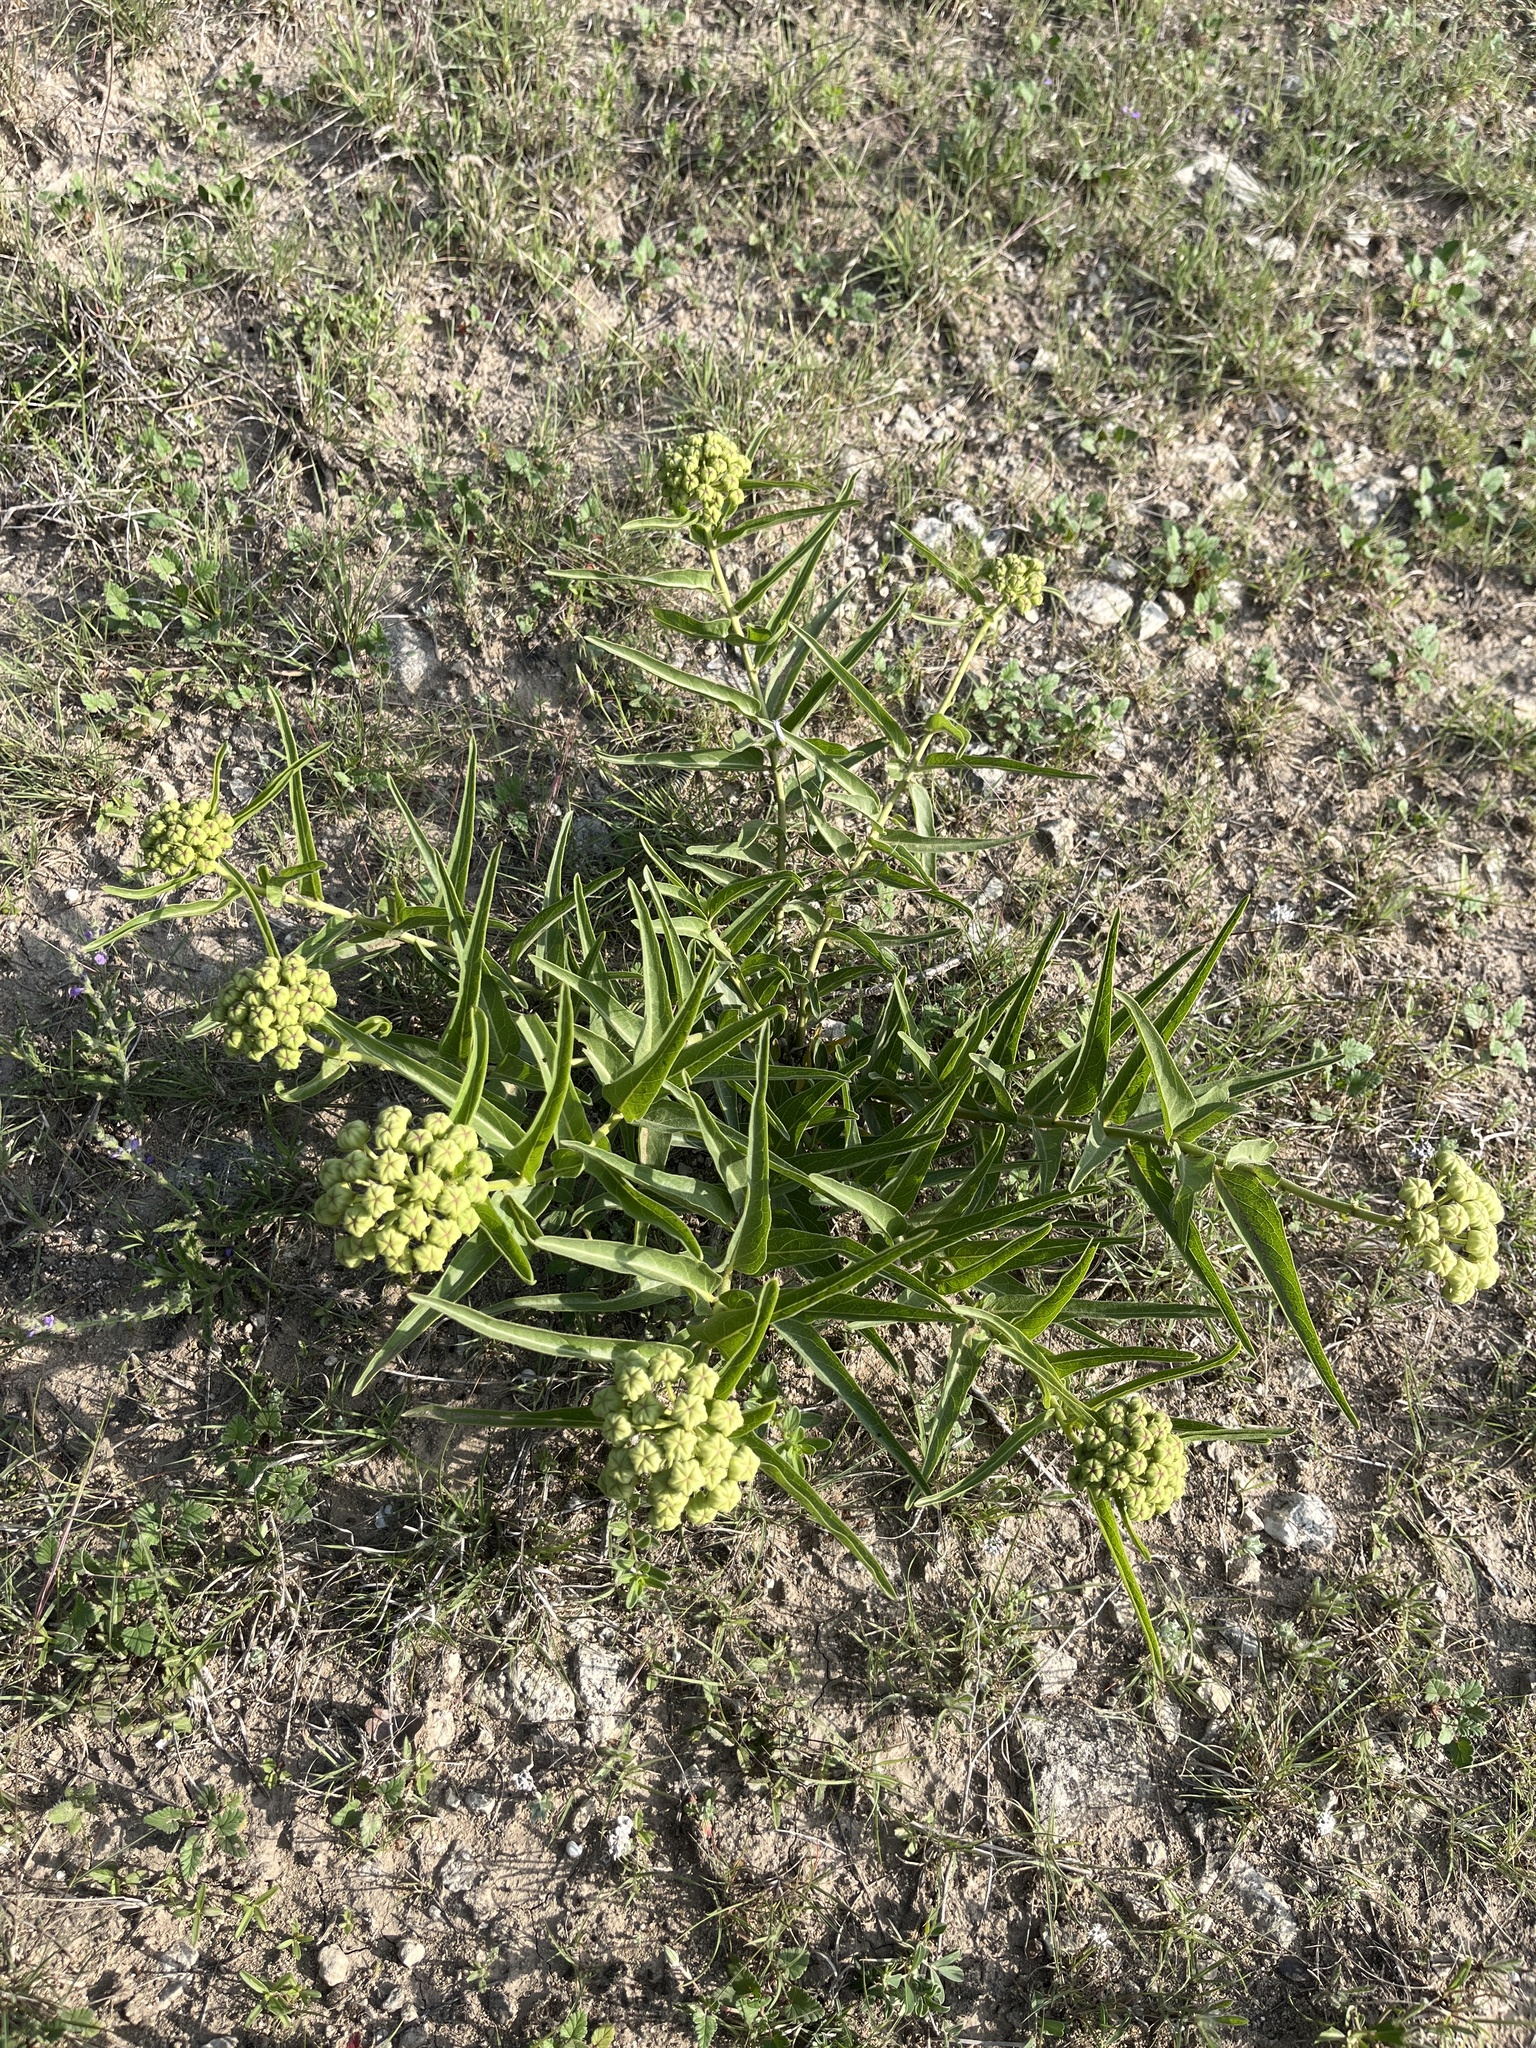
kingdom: Plantae
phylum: Tracheophyta
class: Magnoliopsida
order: Gentianales
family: Apocynaceae
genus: Asclepias
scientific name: Asclepias asperula
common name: Antelope horns
